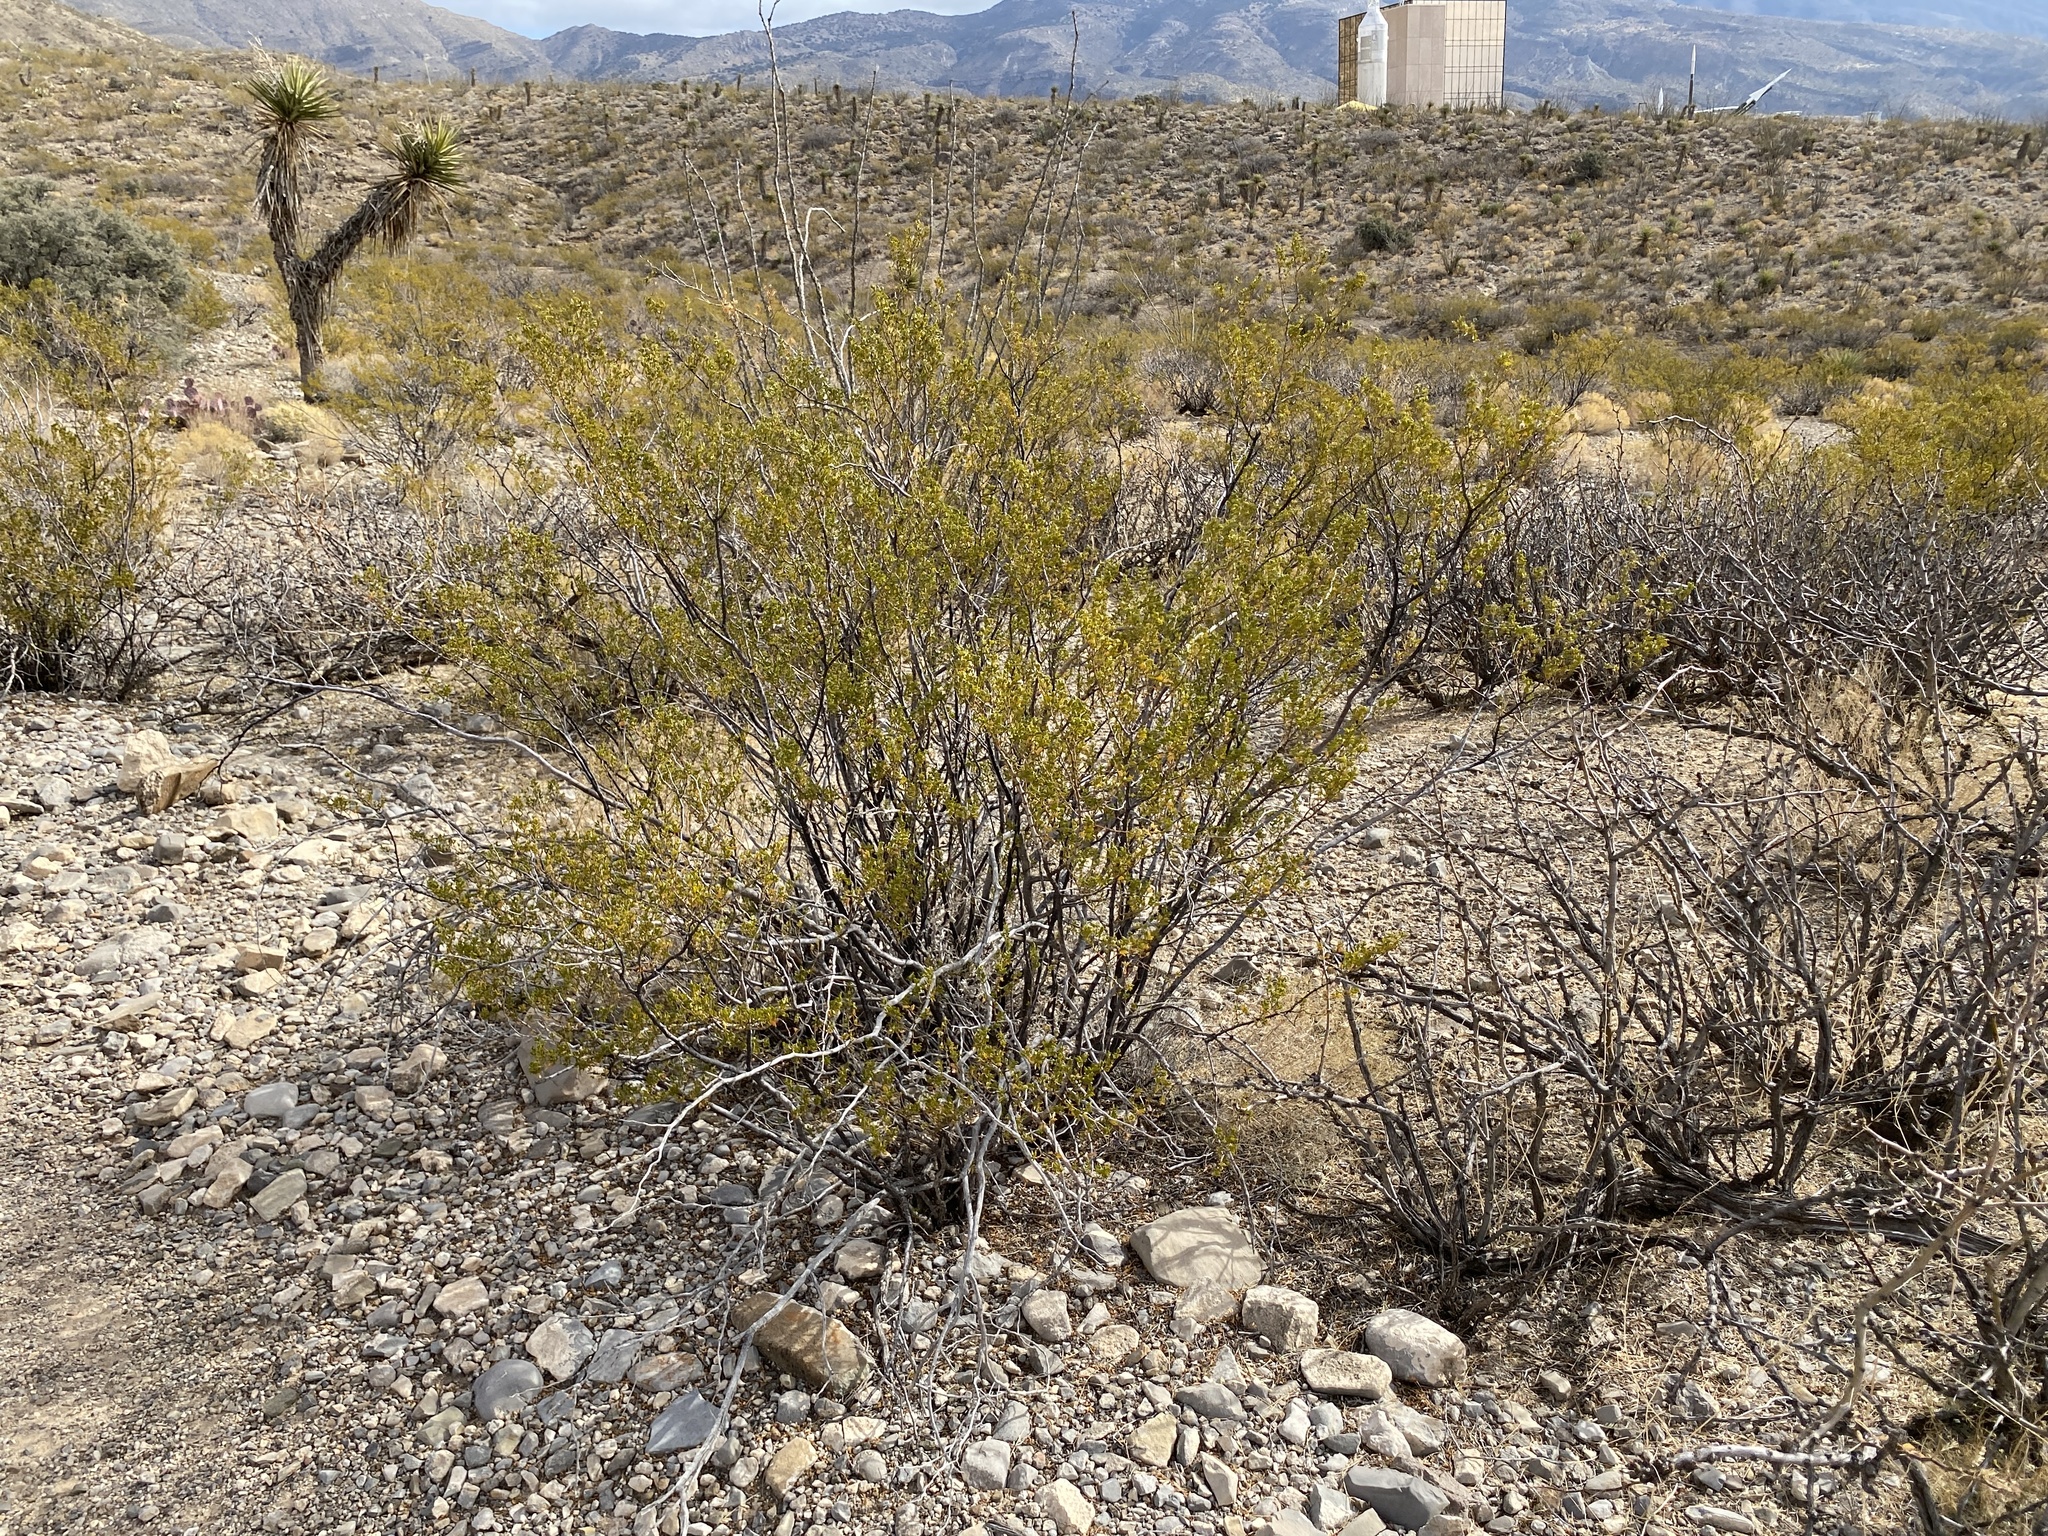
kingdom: Plantae
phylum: Tracheophyta
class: Magnoliopsida
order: Zygophyllales
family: Zygophyllaceae
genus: Larrea
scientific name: Larrea tridentata
